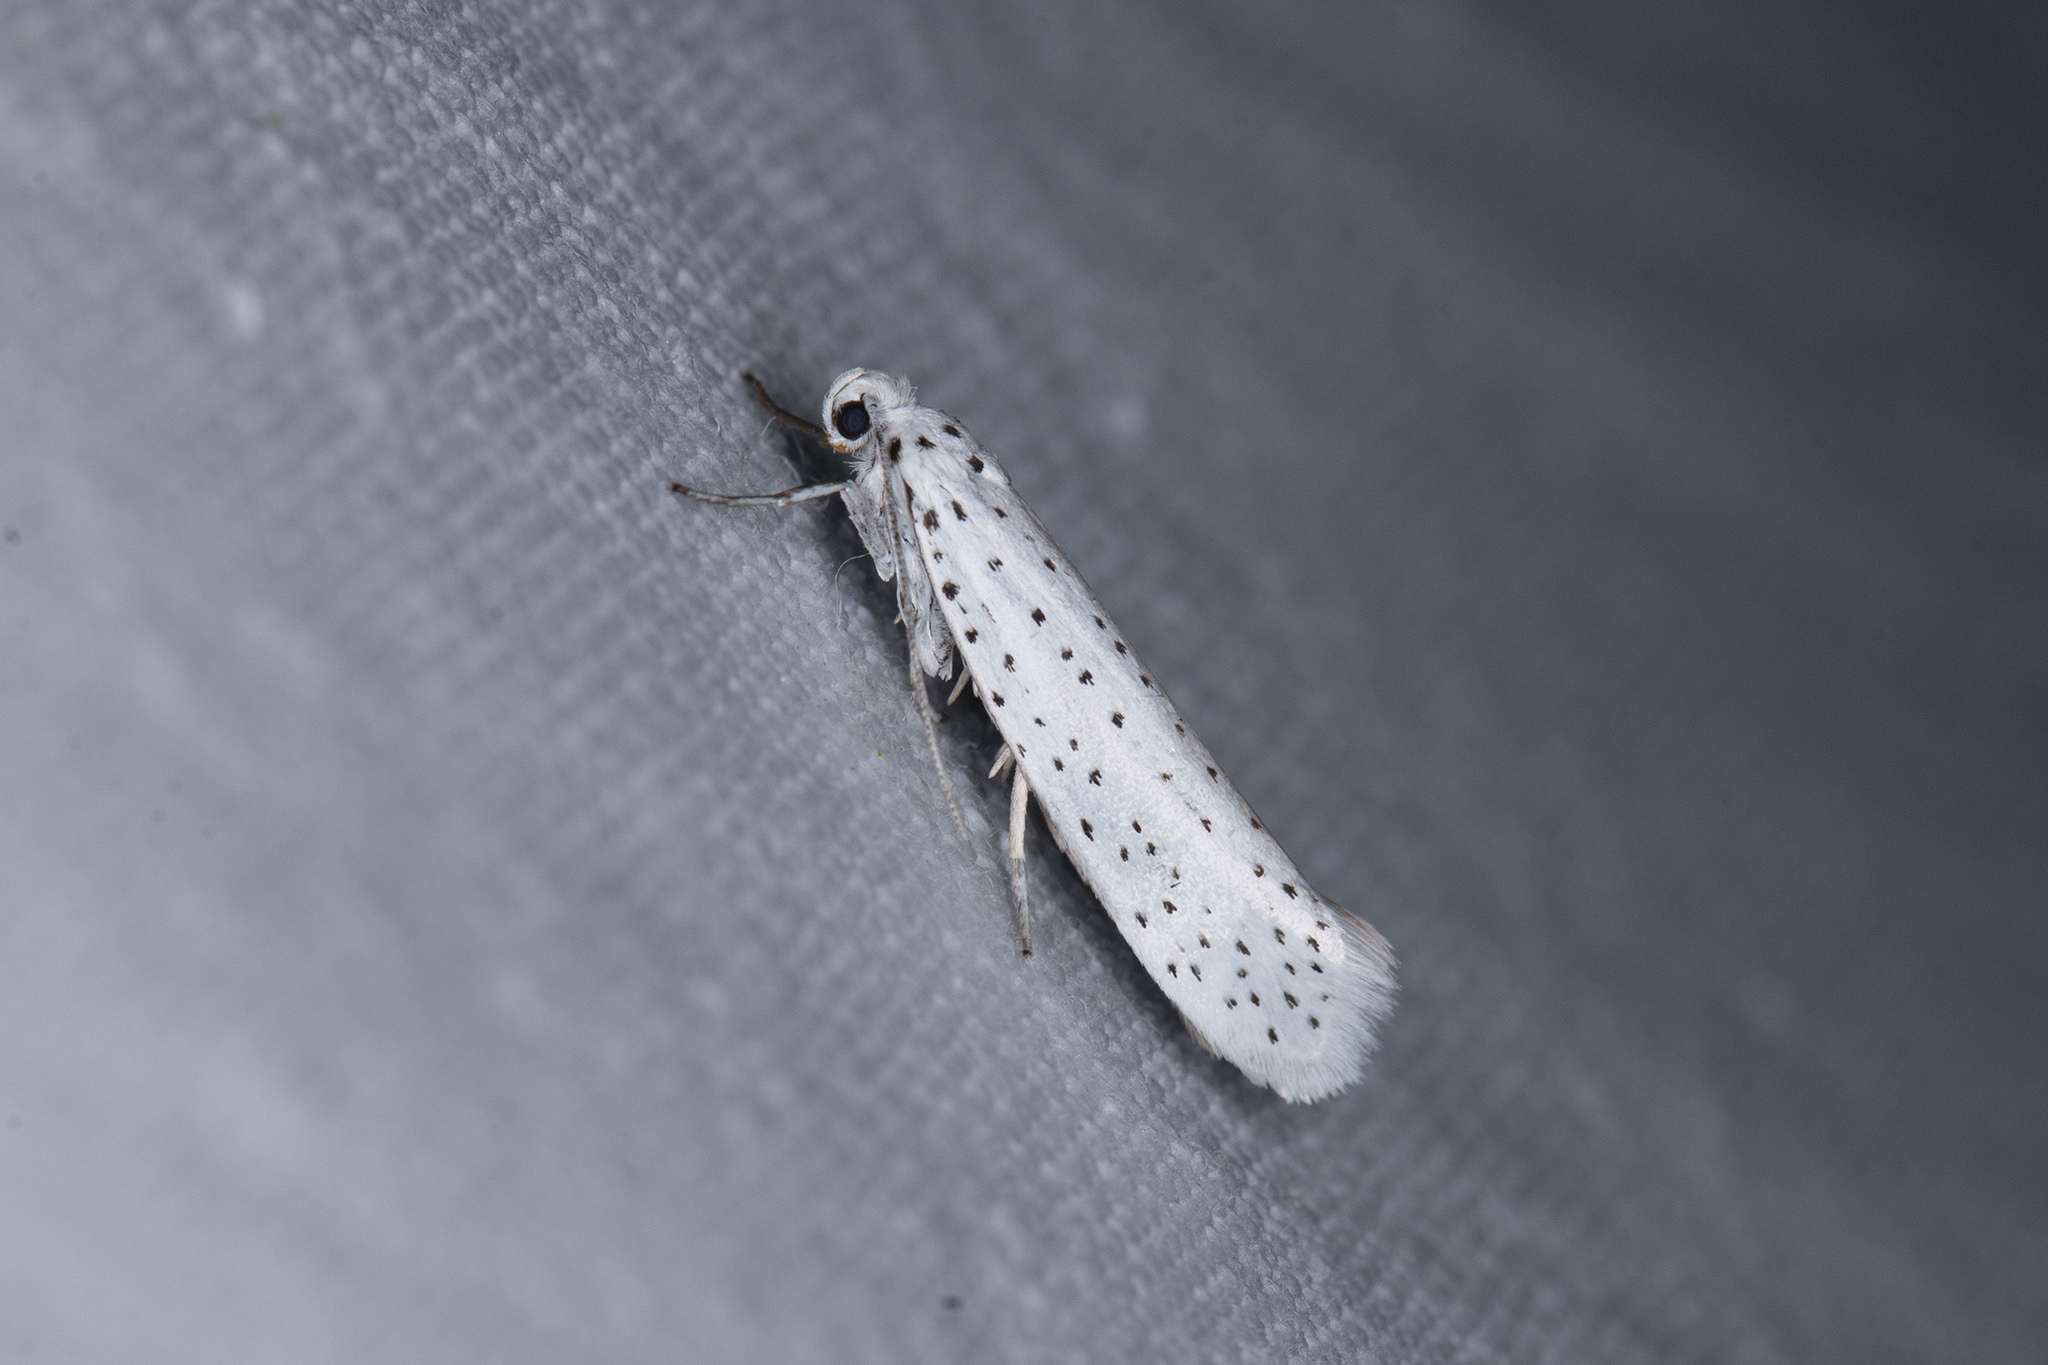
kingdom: Animalia
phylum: Arthropoda
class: Insecta
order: Lepidoptera
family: Yponomeutidae
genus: Yponomeuta
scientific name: Yponomeuta evonymella
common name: Bird-cherry ermine
